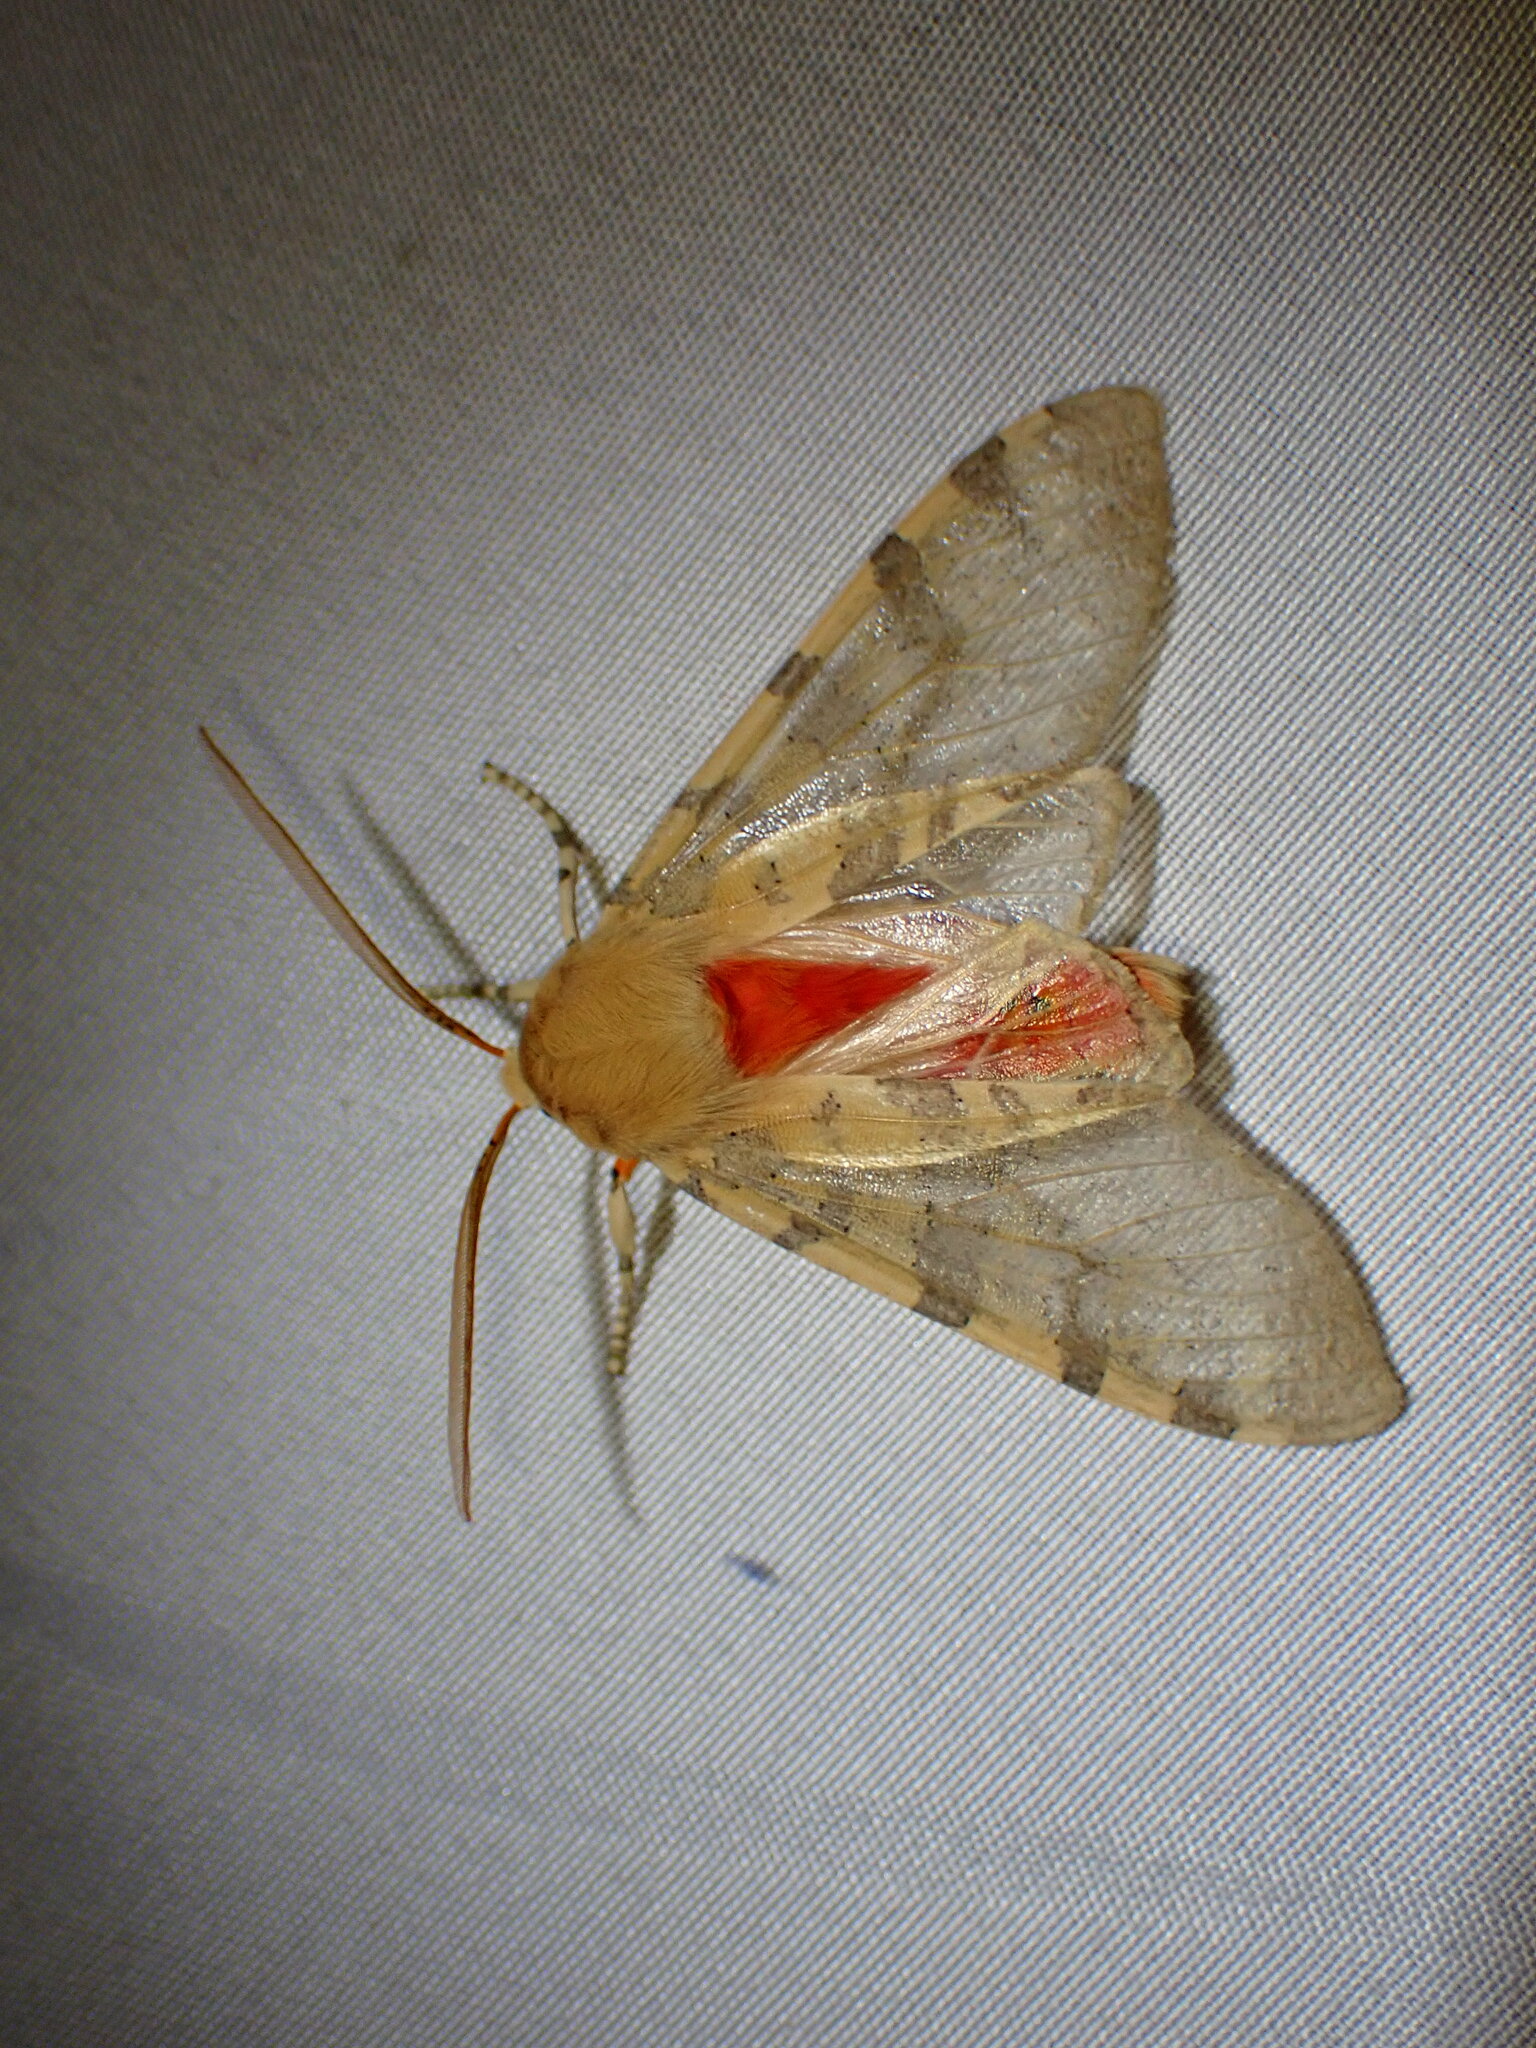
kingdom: Animalia
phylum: Arthropoda
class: Insecta
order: Lepidoptera
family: Erebidae
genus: Hemihyalea
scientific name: Hemihyalea edwardsii
